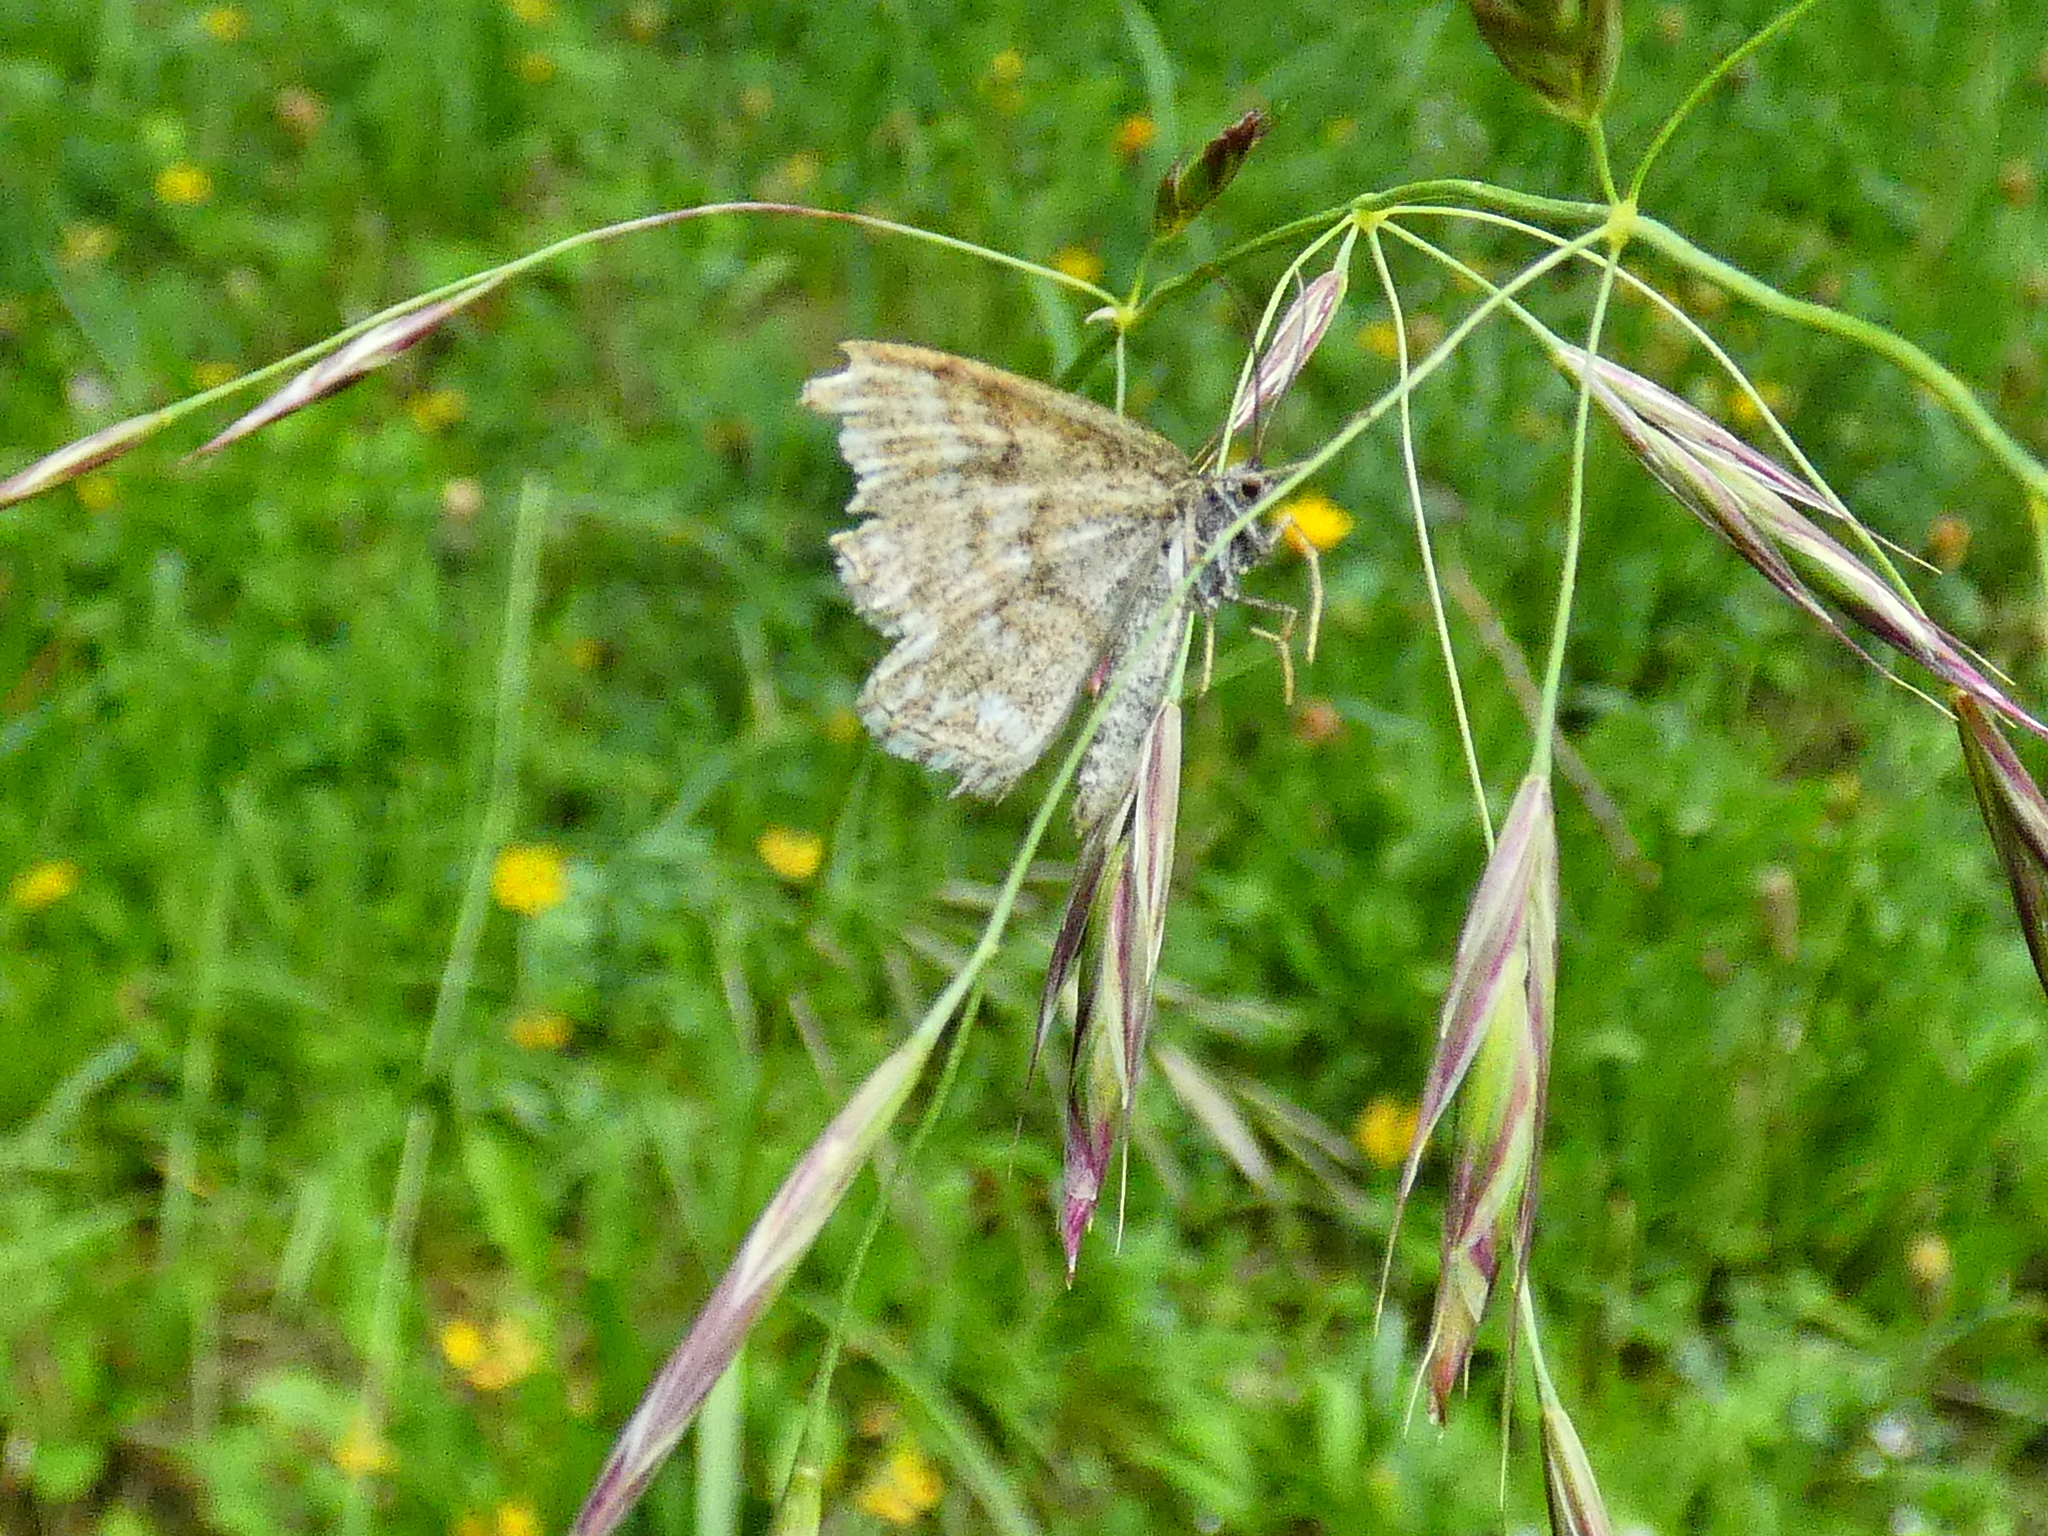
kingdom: Animalia
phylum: Arthropoda
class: Insecta
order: Lepidoptera
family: Geometridae
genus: Scopula
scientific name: Scopula immorata
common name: Lewes wave
